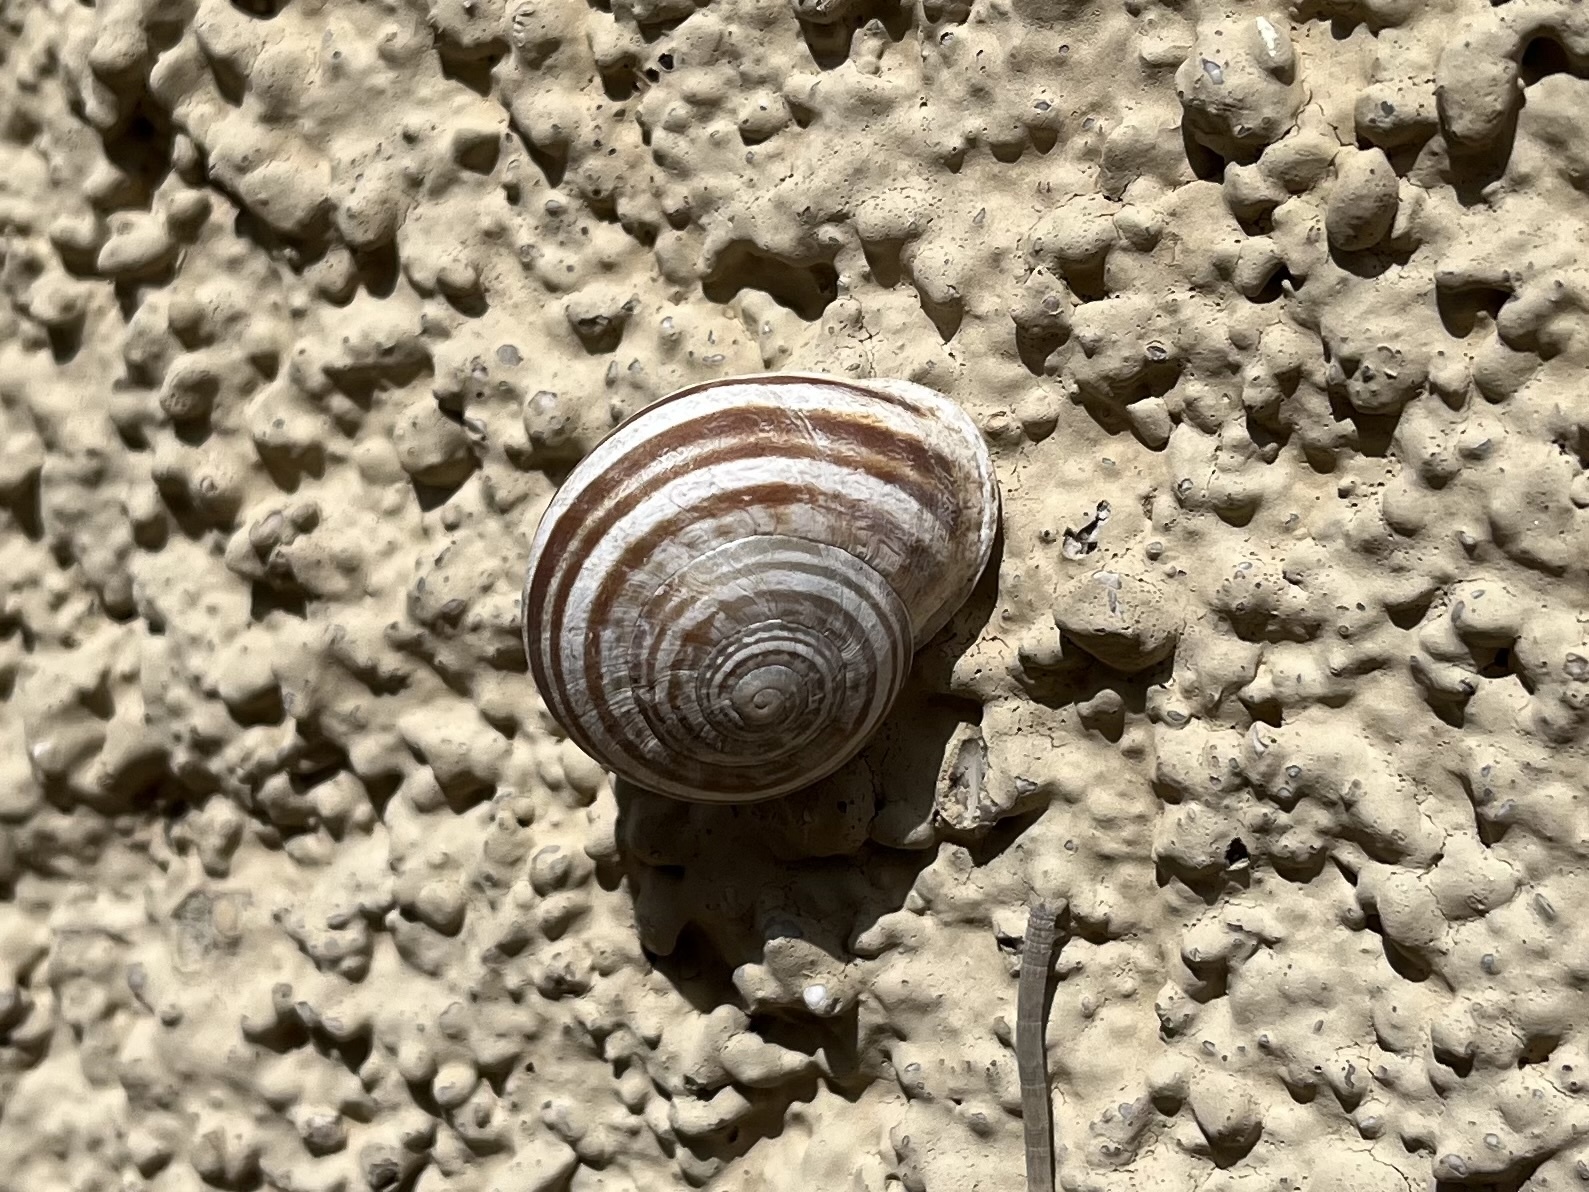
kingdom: Animalia
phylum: Mollusca
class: Gastropoda
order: Stylommatophora
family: Helicidae
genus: Eobania
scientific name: Eobania vermiculata
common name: Chocolateband snail
